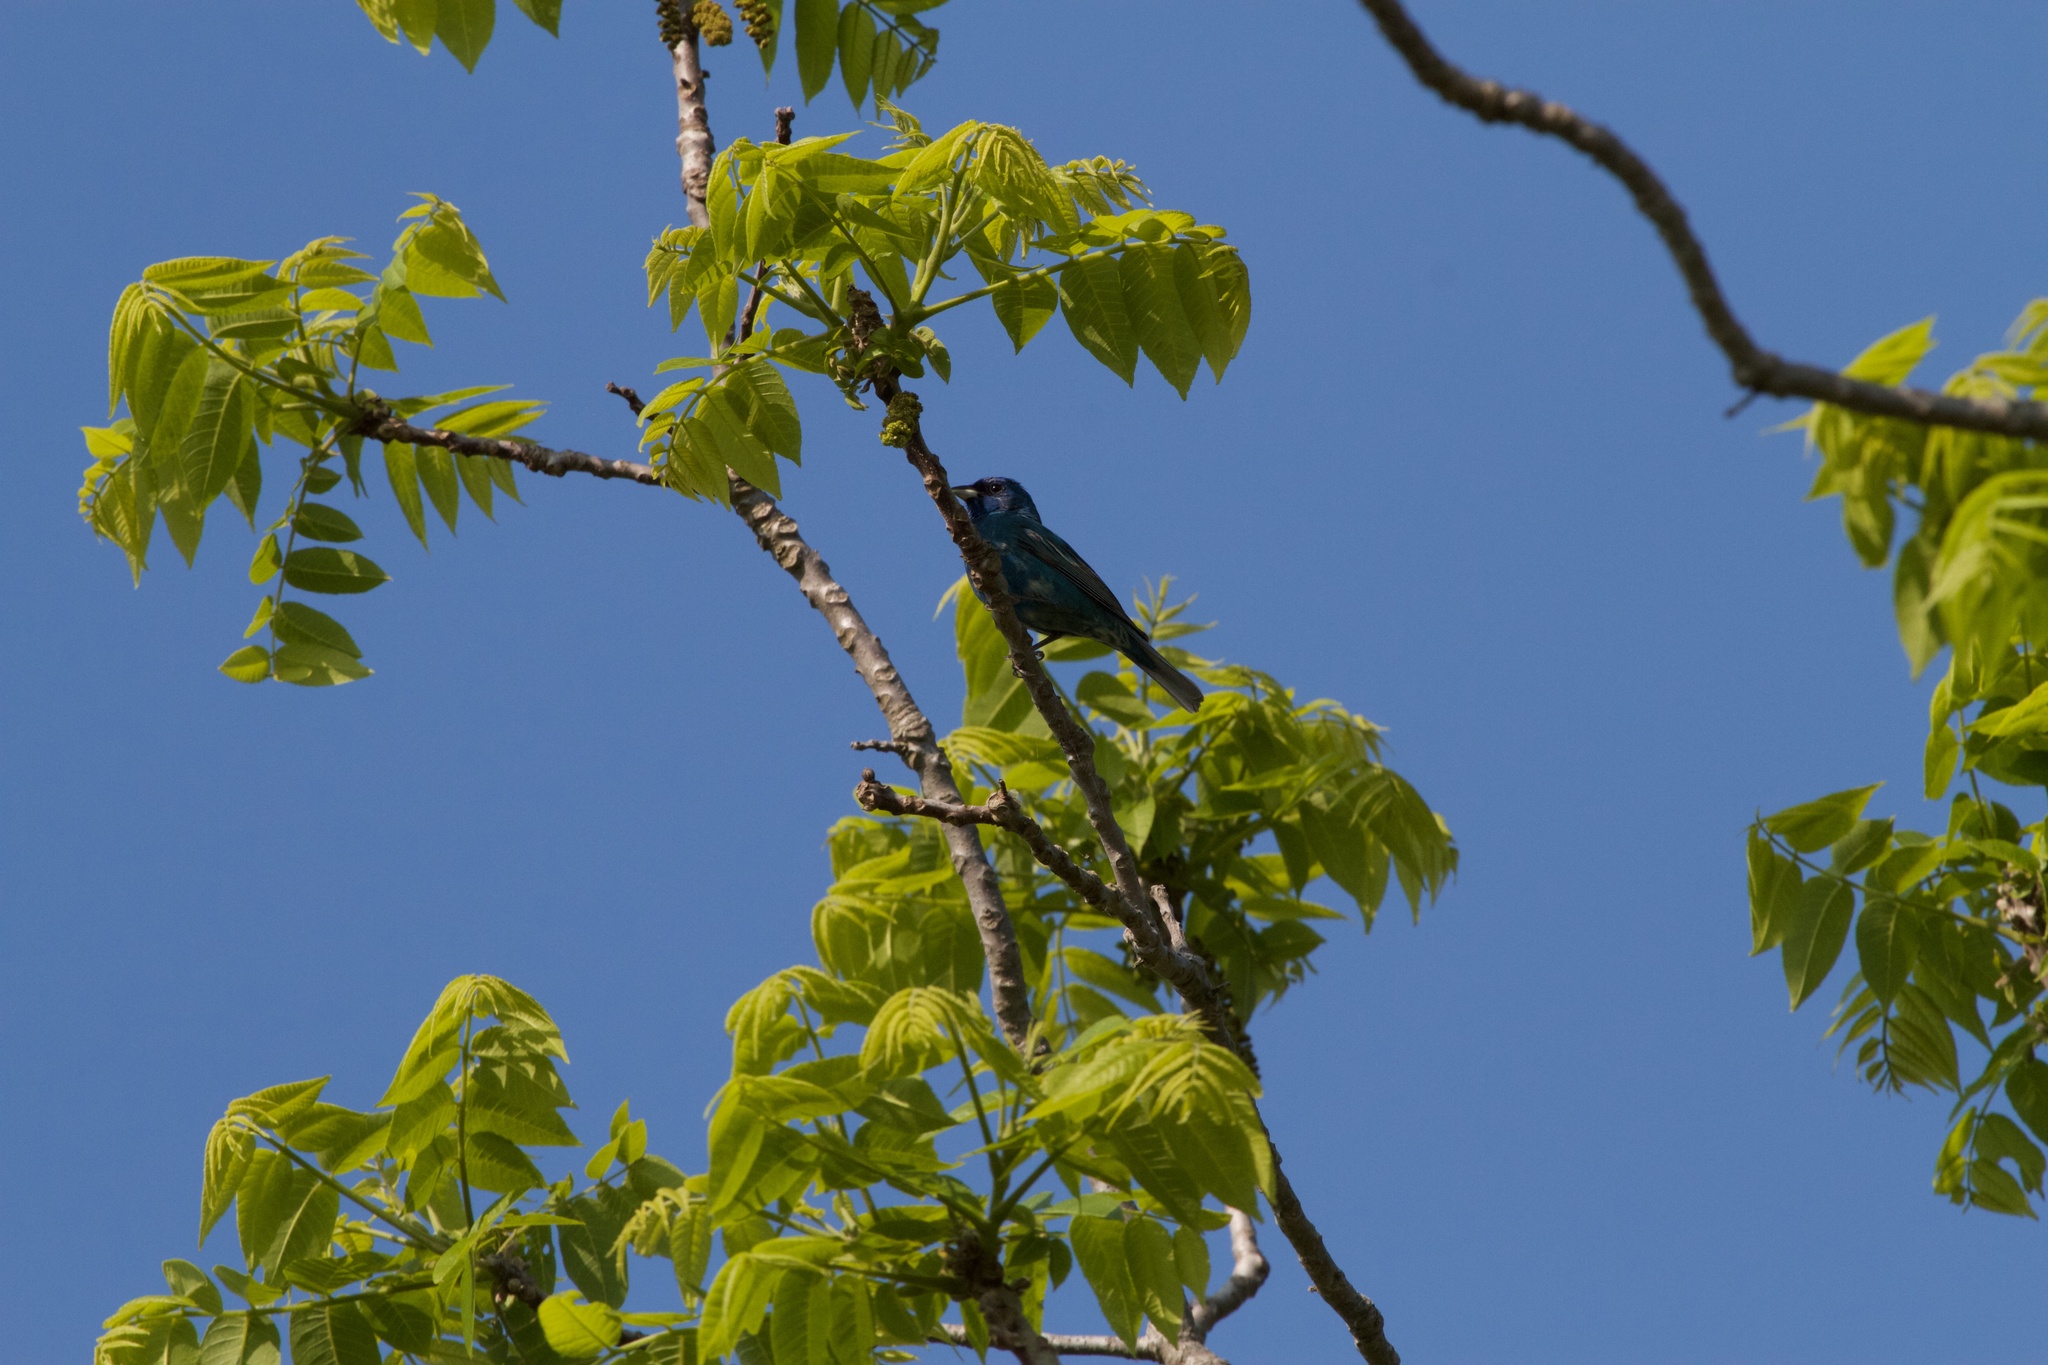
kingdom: Animalia
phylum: Chordata
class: Aves
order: Passeriformes
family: Cardinalidae
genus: Passerina
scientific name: Passerina cyanea
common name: Indigo bunting
